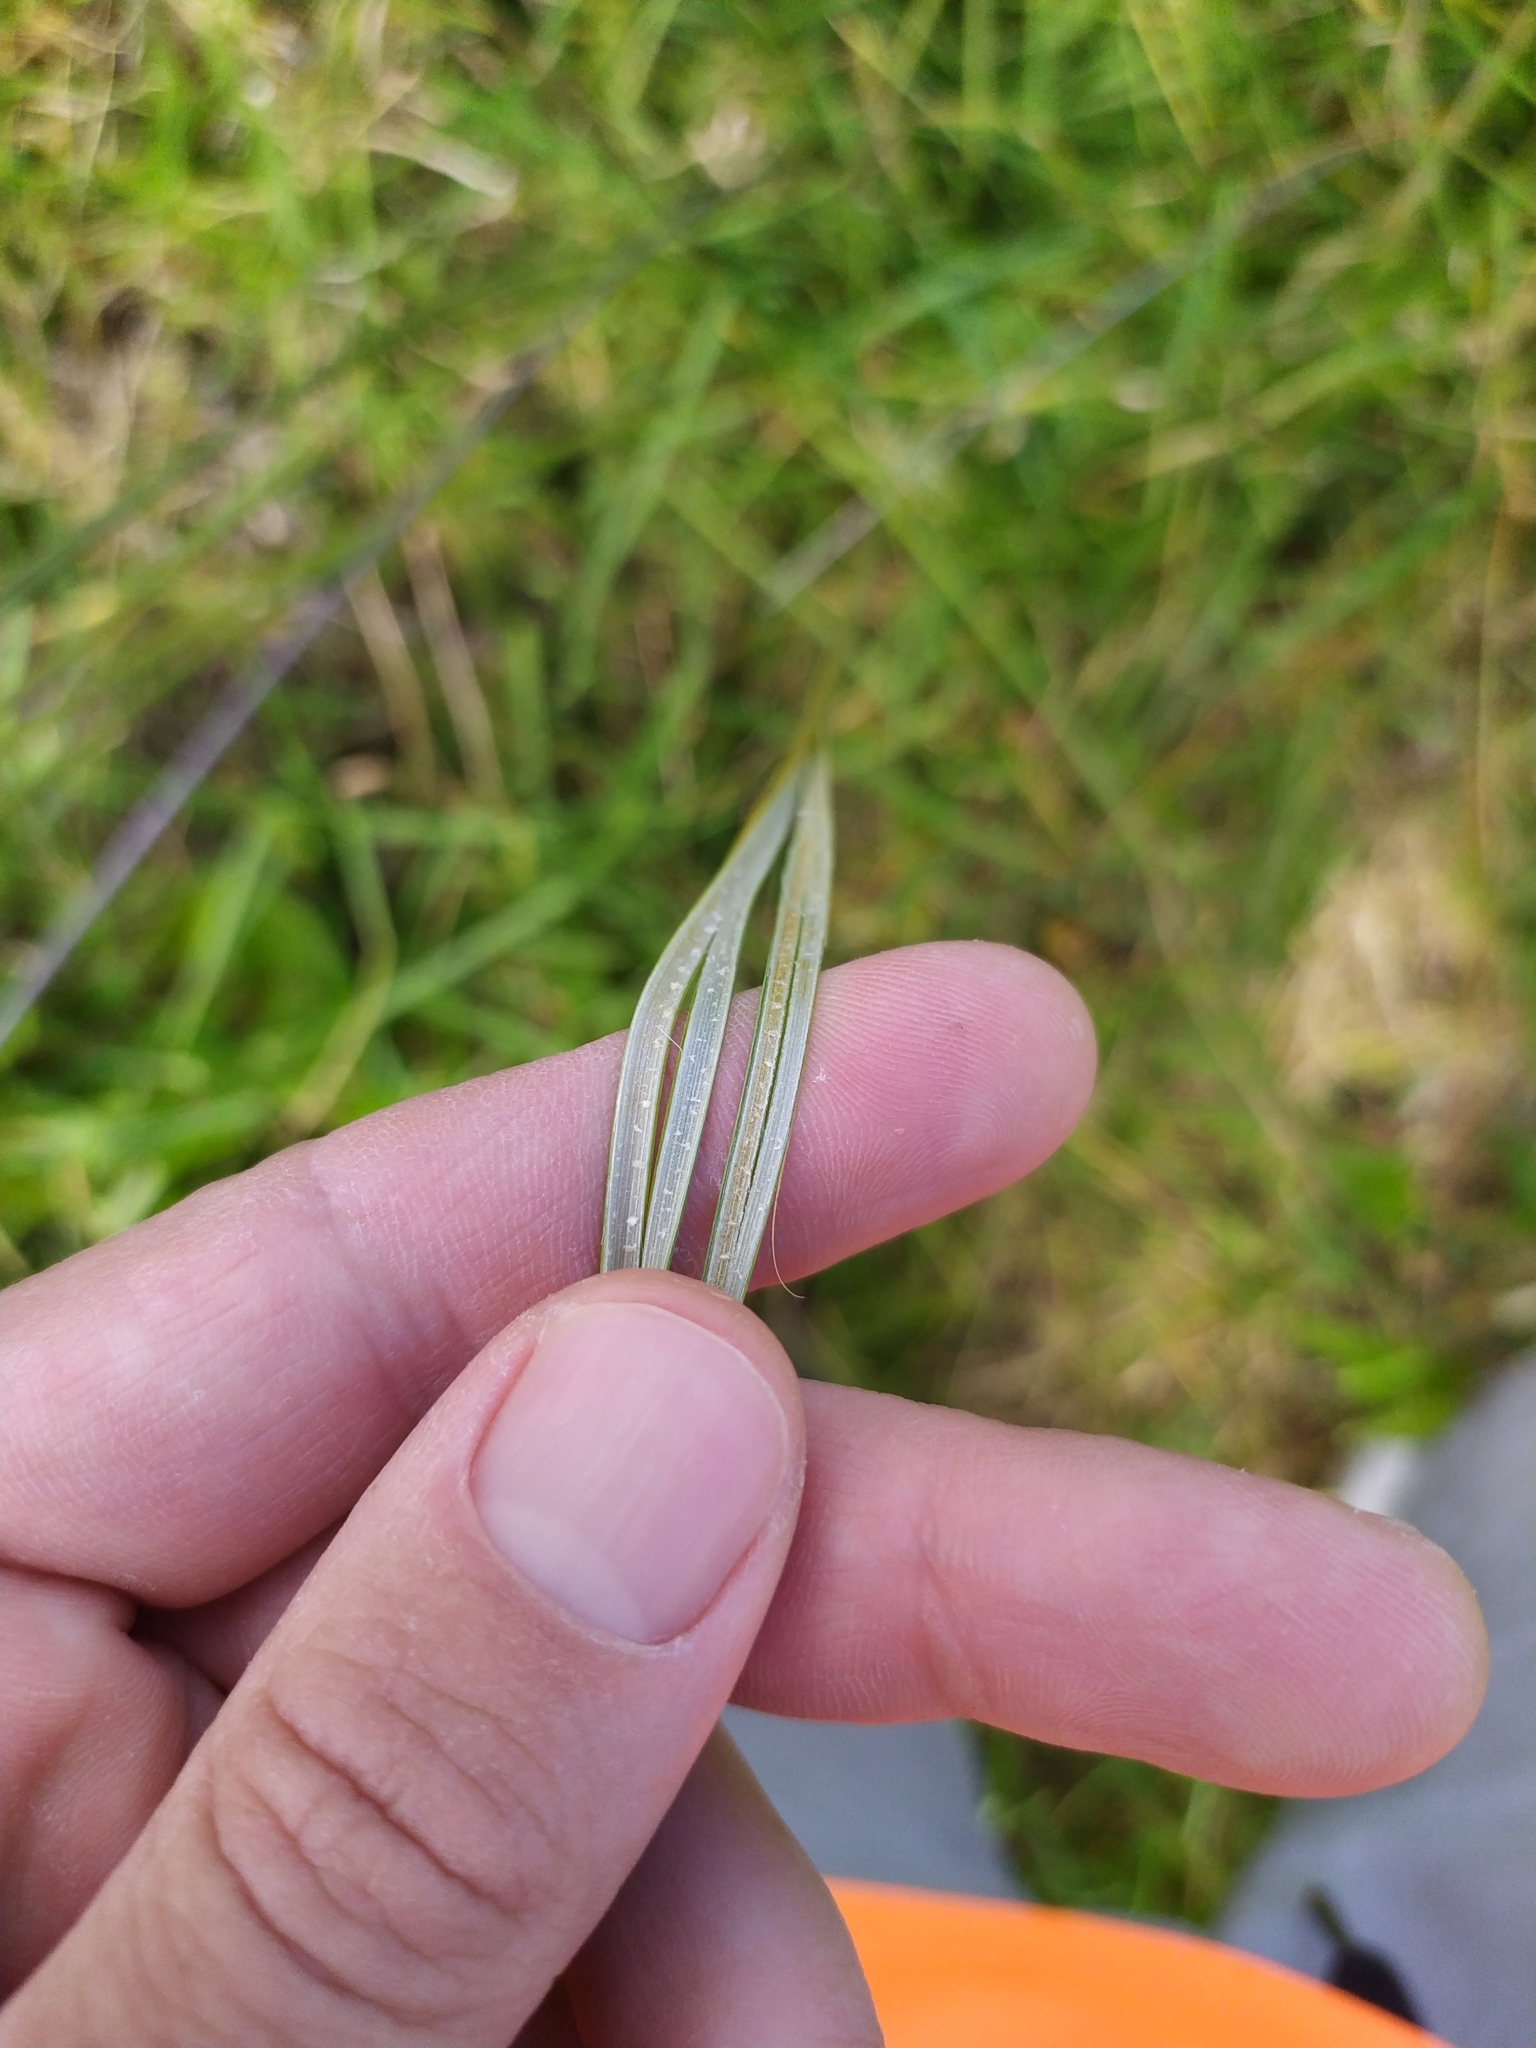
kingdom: Plantae
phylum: Tracheophyta
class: Liliopsida
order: Poales
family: Juncaceae
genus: Juncus
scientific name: Juncus australis
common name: Austral rush
